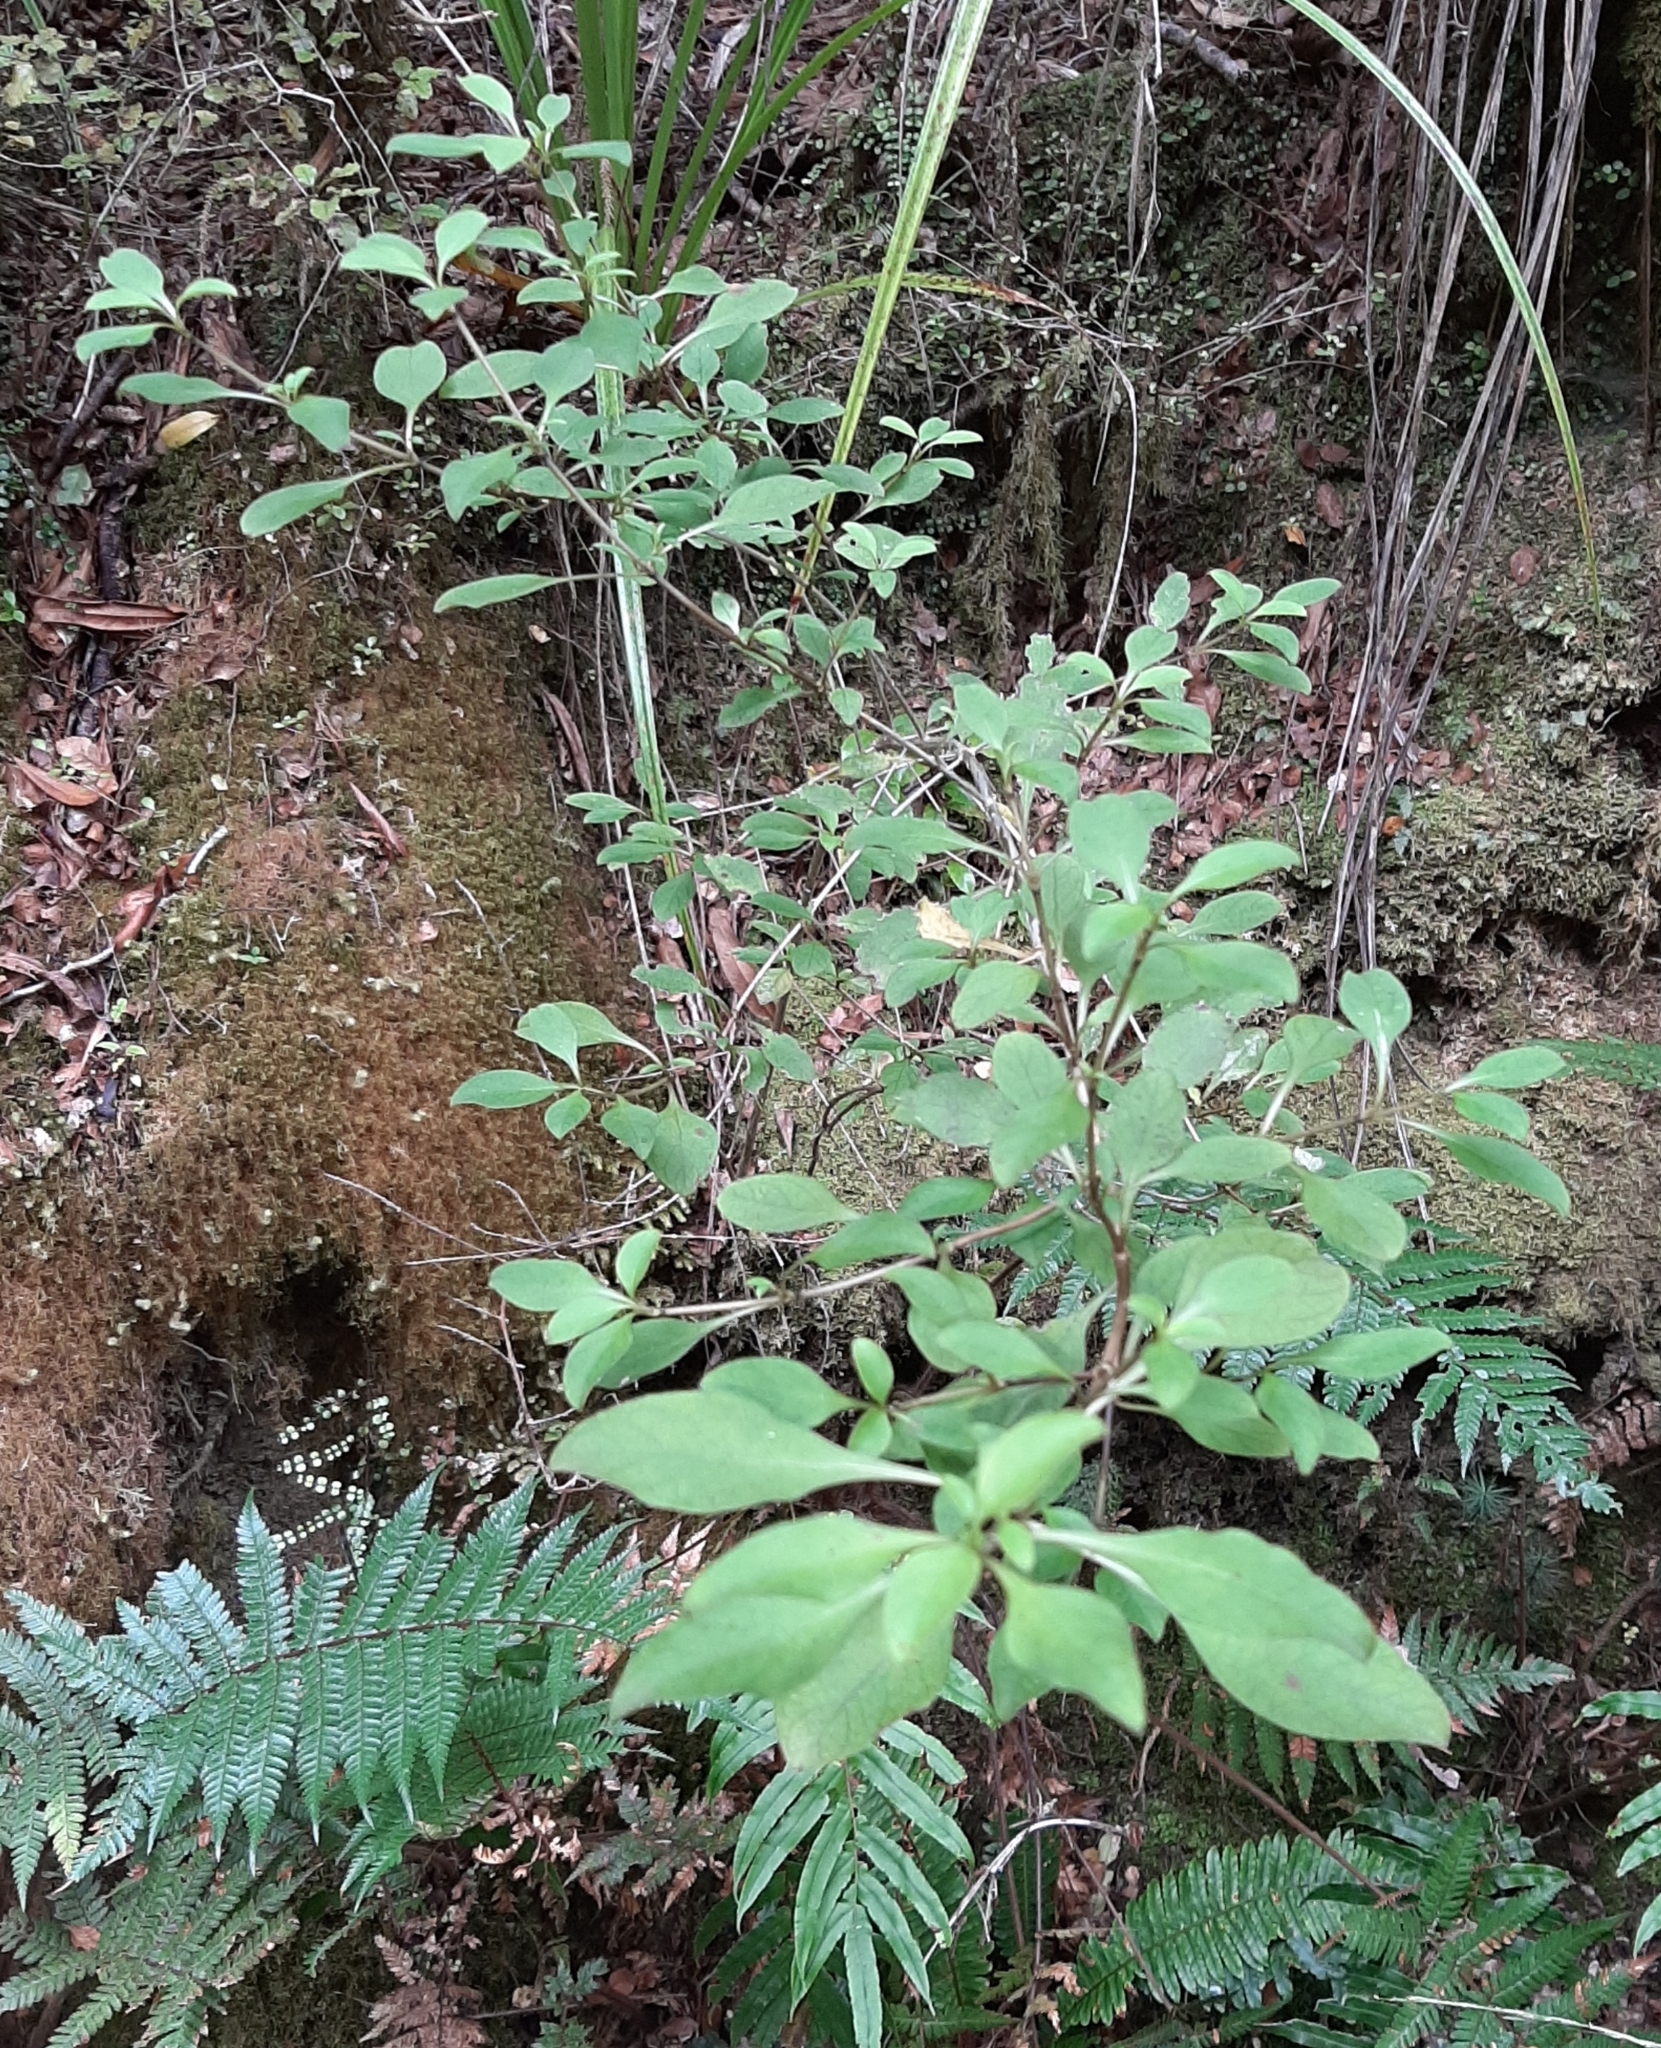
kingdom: Plantae
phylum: Tracheophyta
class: Magnoliopsida
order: Gentianales
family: Rubiaceae
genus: Coprosma
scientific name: Coprosma foetidissima
